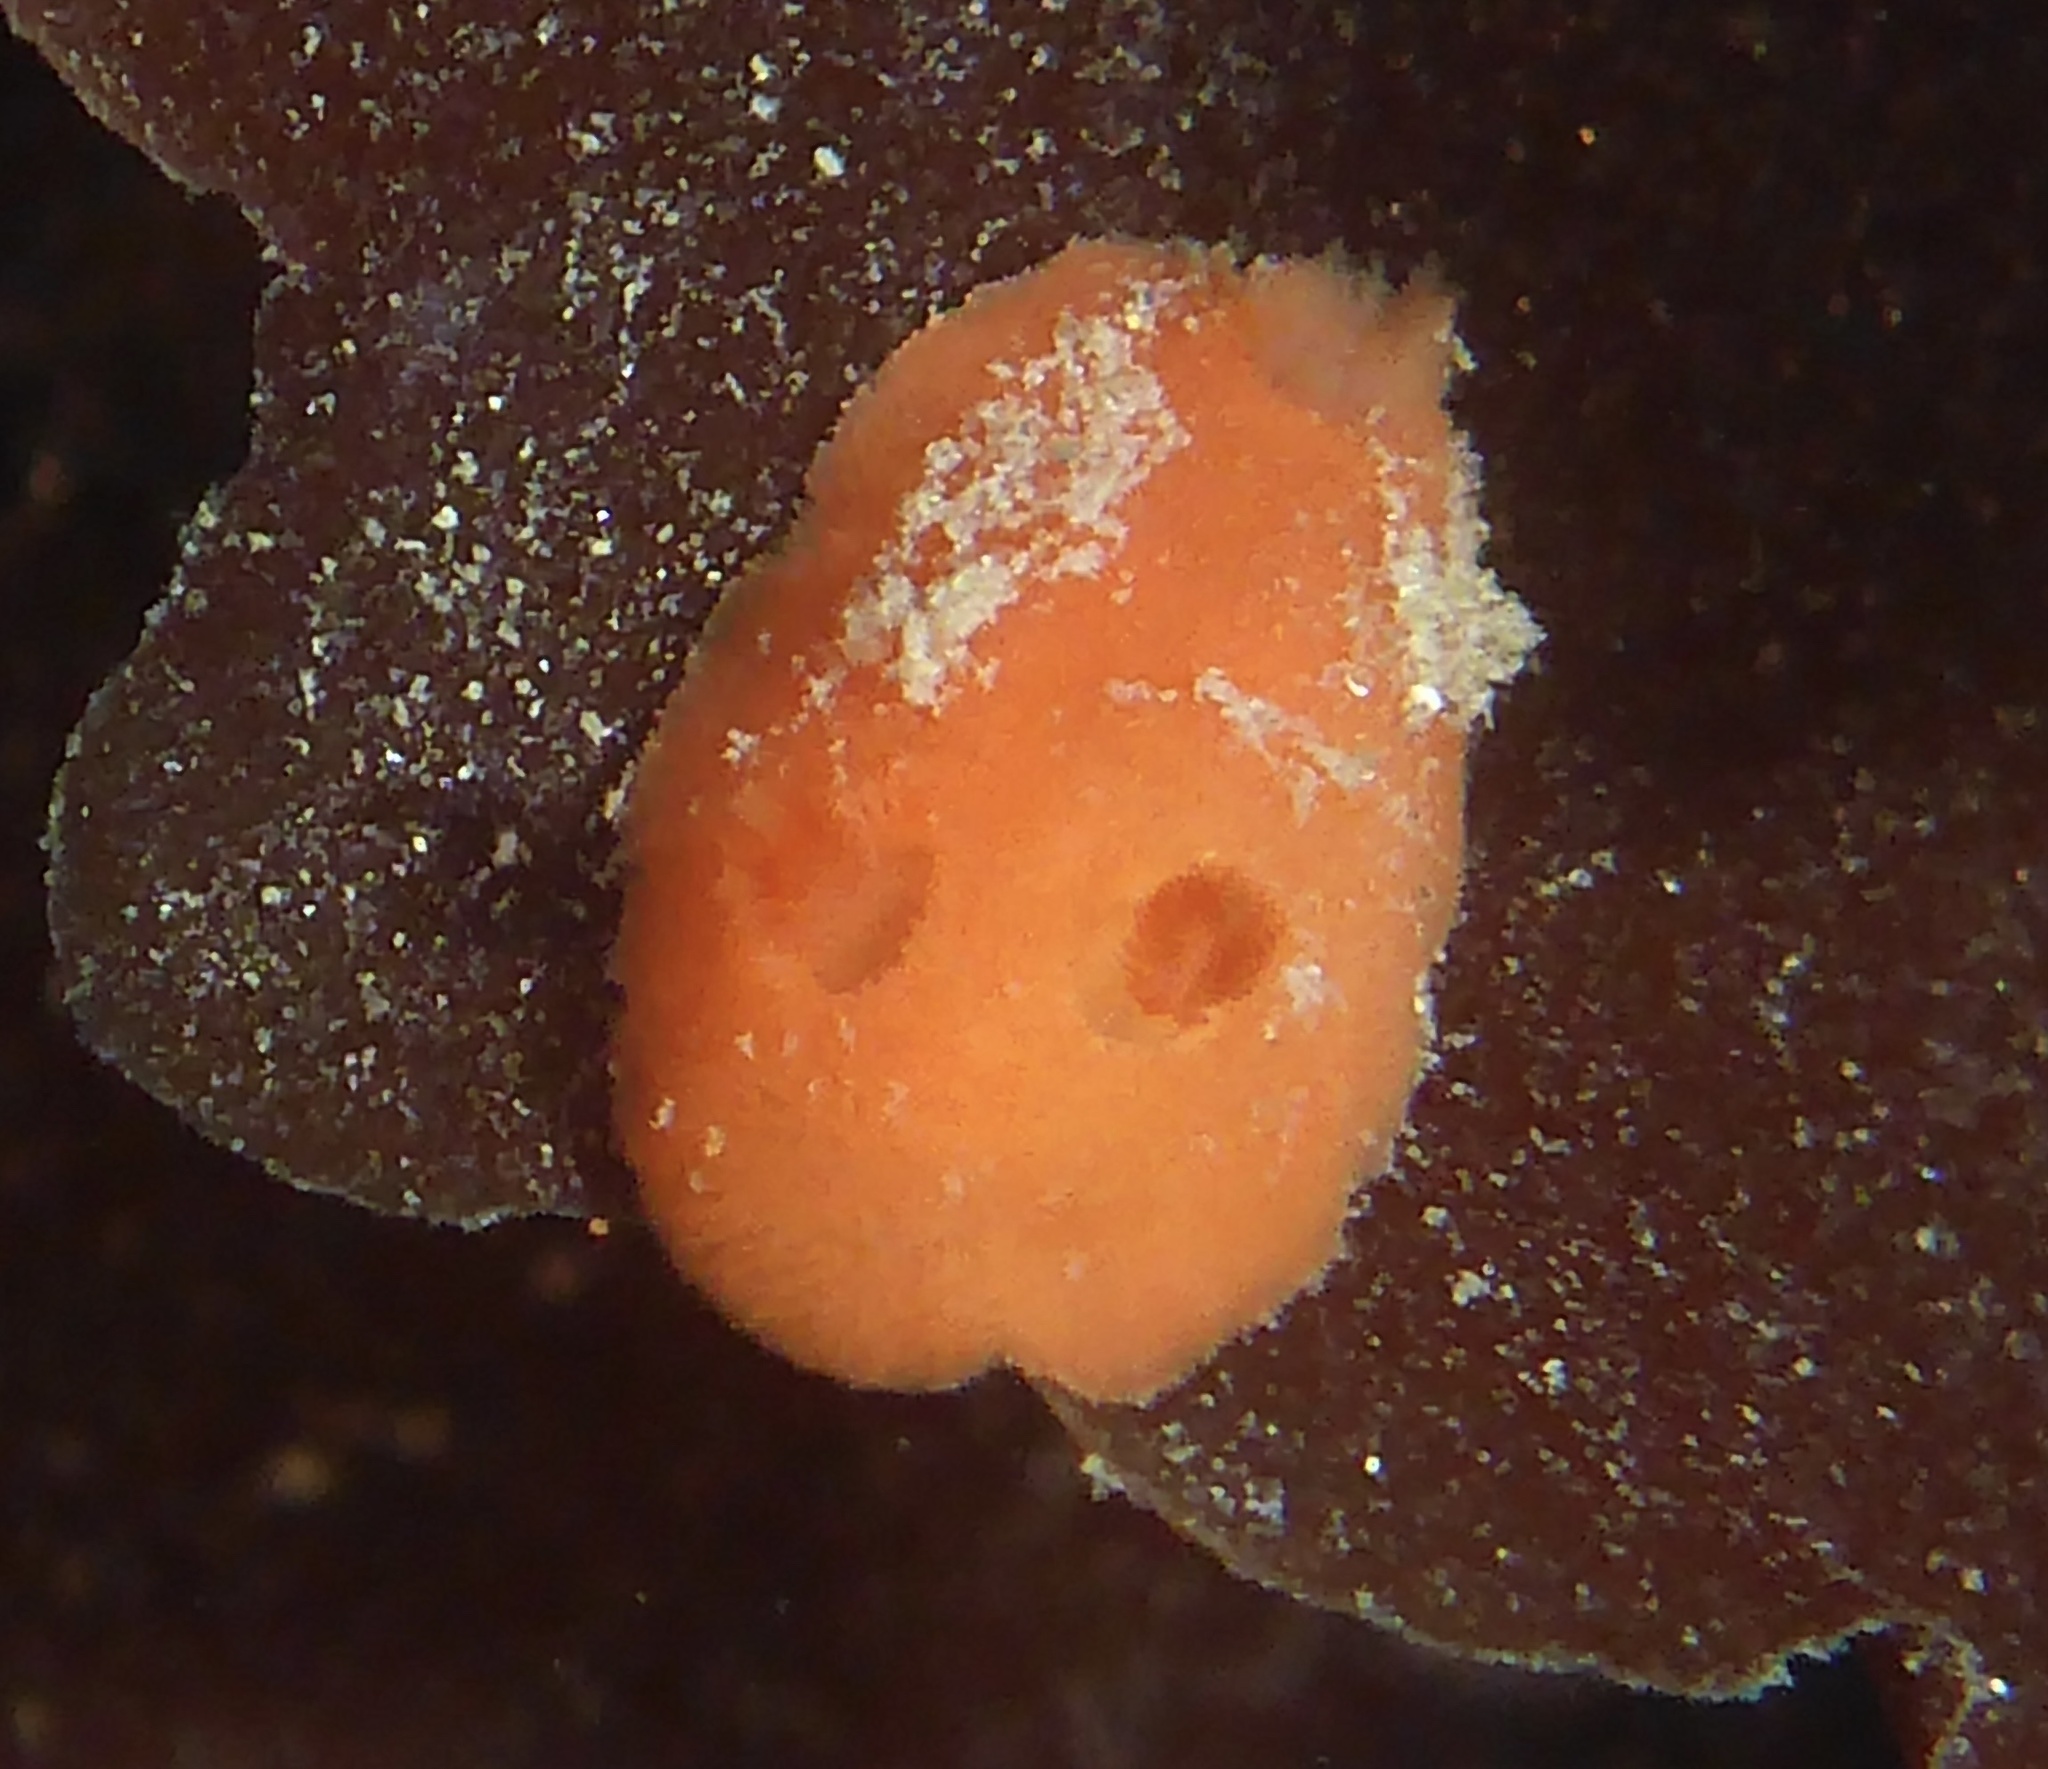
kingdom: Animalia
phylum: Mollusca
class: Gastropoda
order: Nudibranchia
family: Discodorididae
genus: Rostanga
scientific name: Rostanga pulchra
